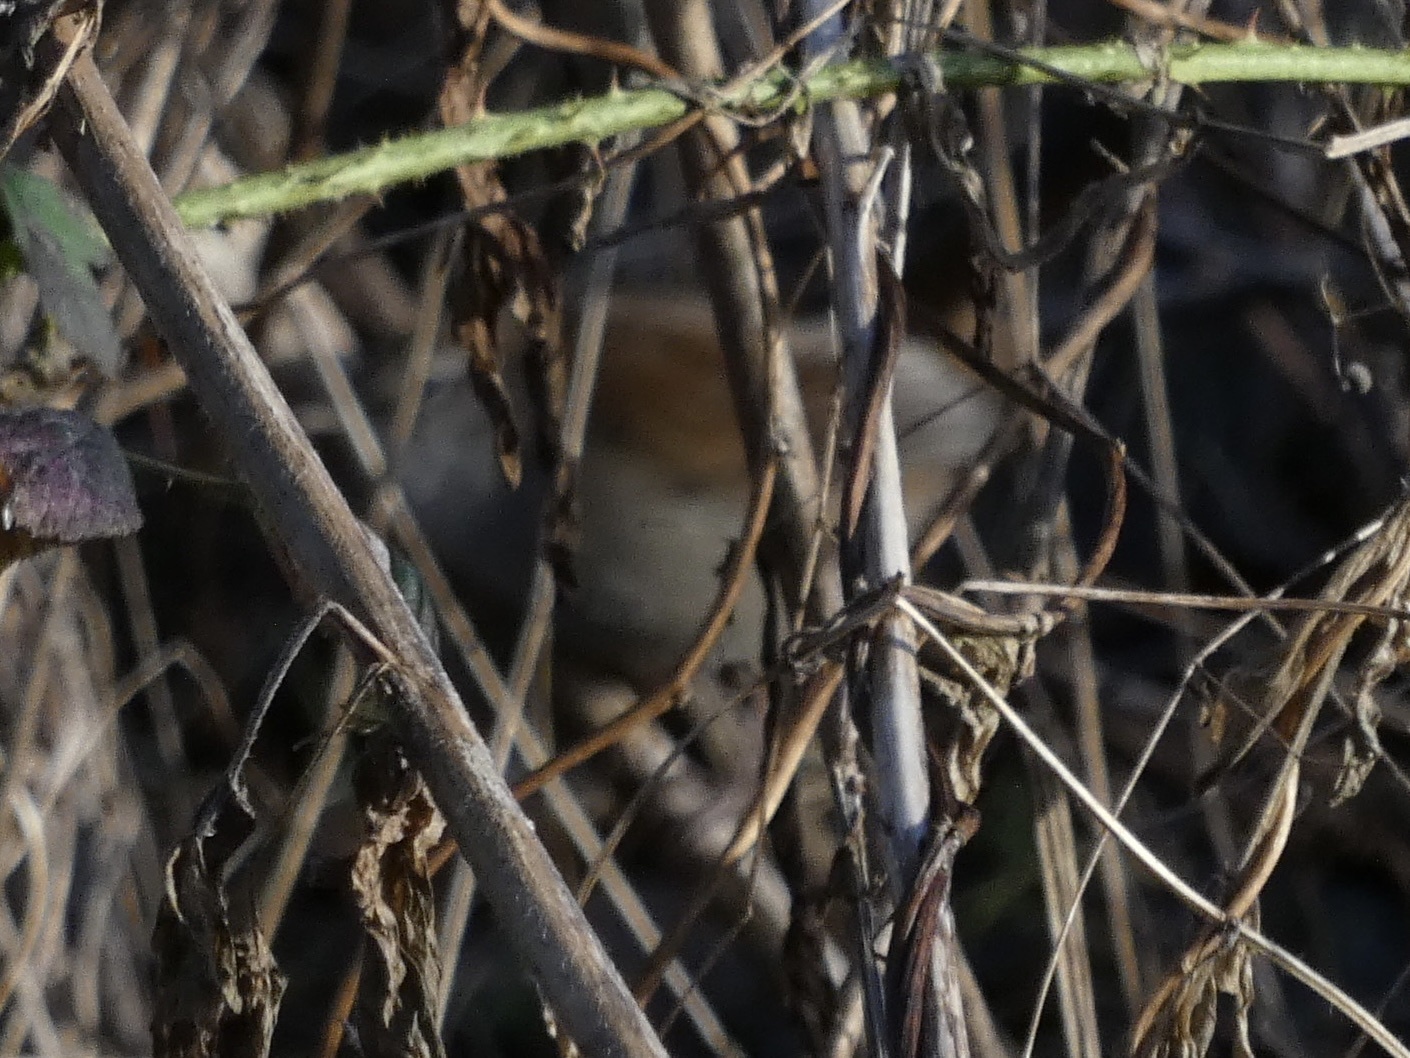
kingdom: Animalia
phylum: Chordata
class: Aves
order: Passeriformes
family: Cettiidae
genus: Cettia
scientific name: Cettia cetti
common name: Cetti's warbler
